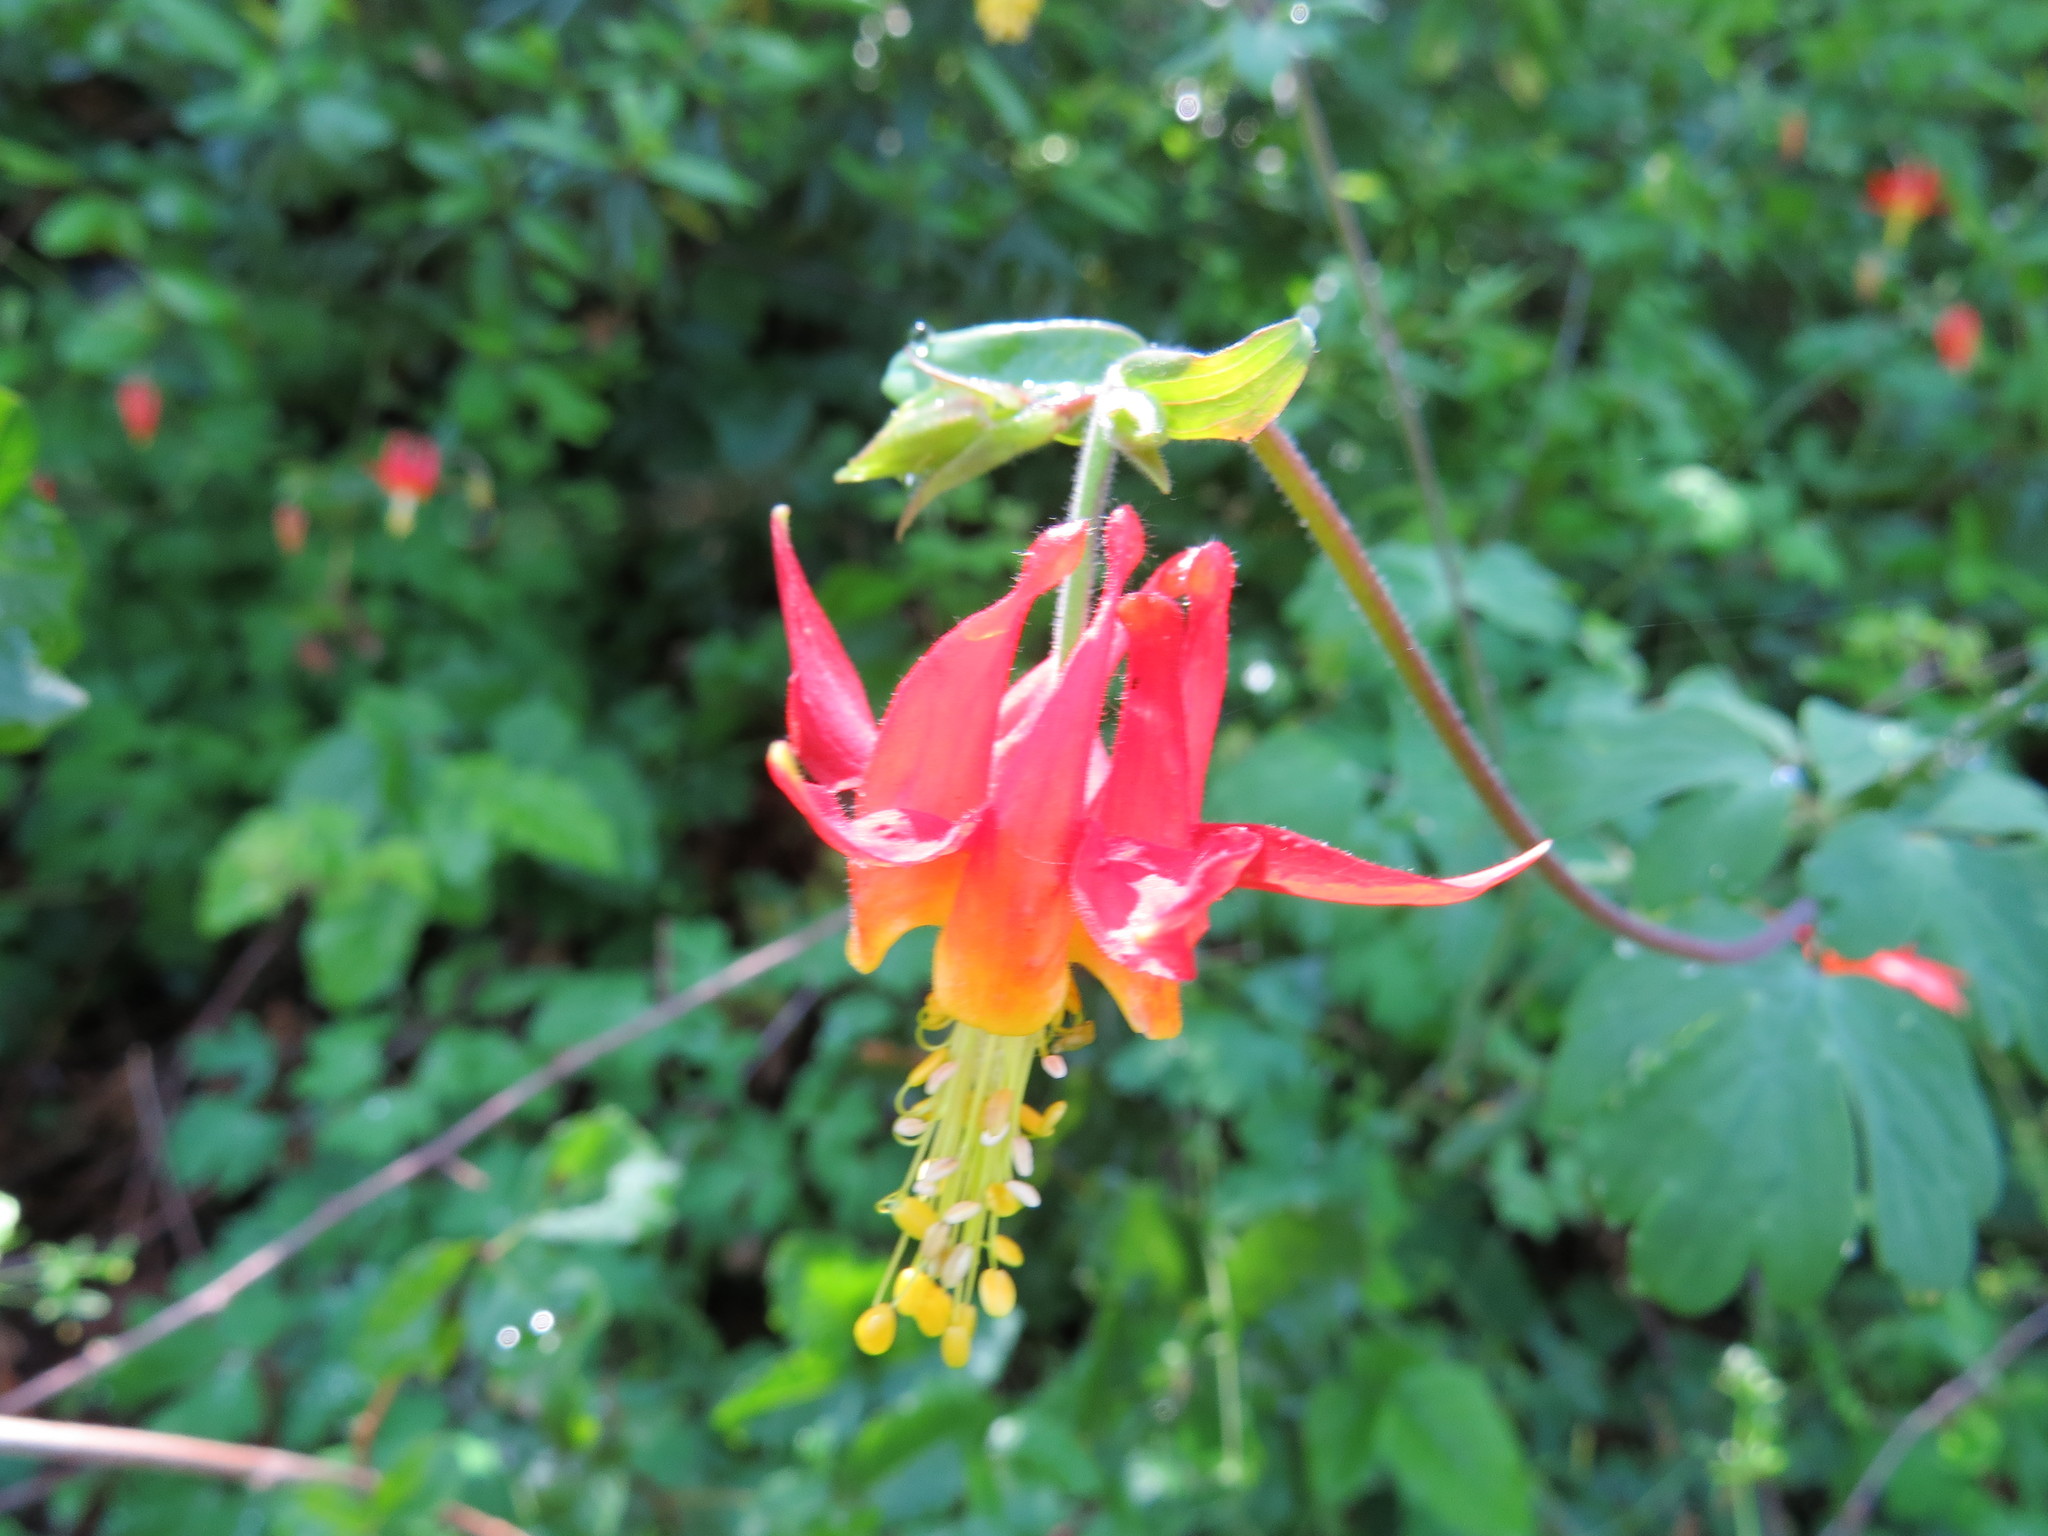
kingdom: Plantae
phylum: Tracheophyta
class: Magnoliopsida
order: Ranunculales
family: Ranunculaceae
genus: Aquilegia
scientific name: Aquilegia formosa
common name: Sitka columbine
